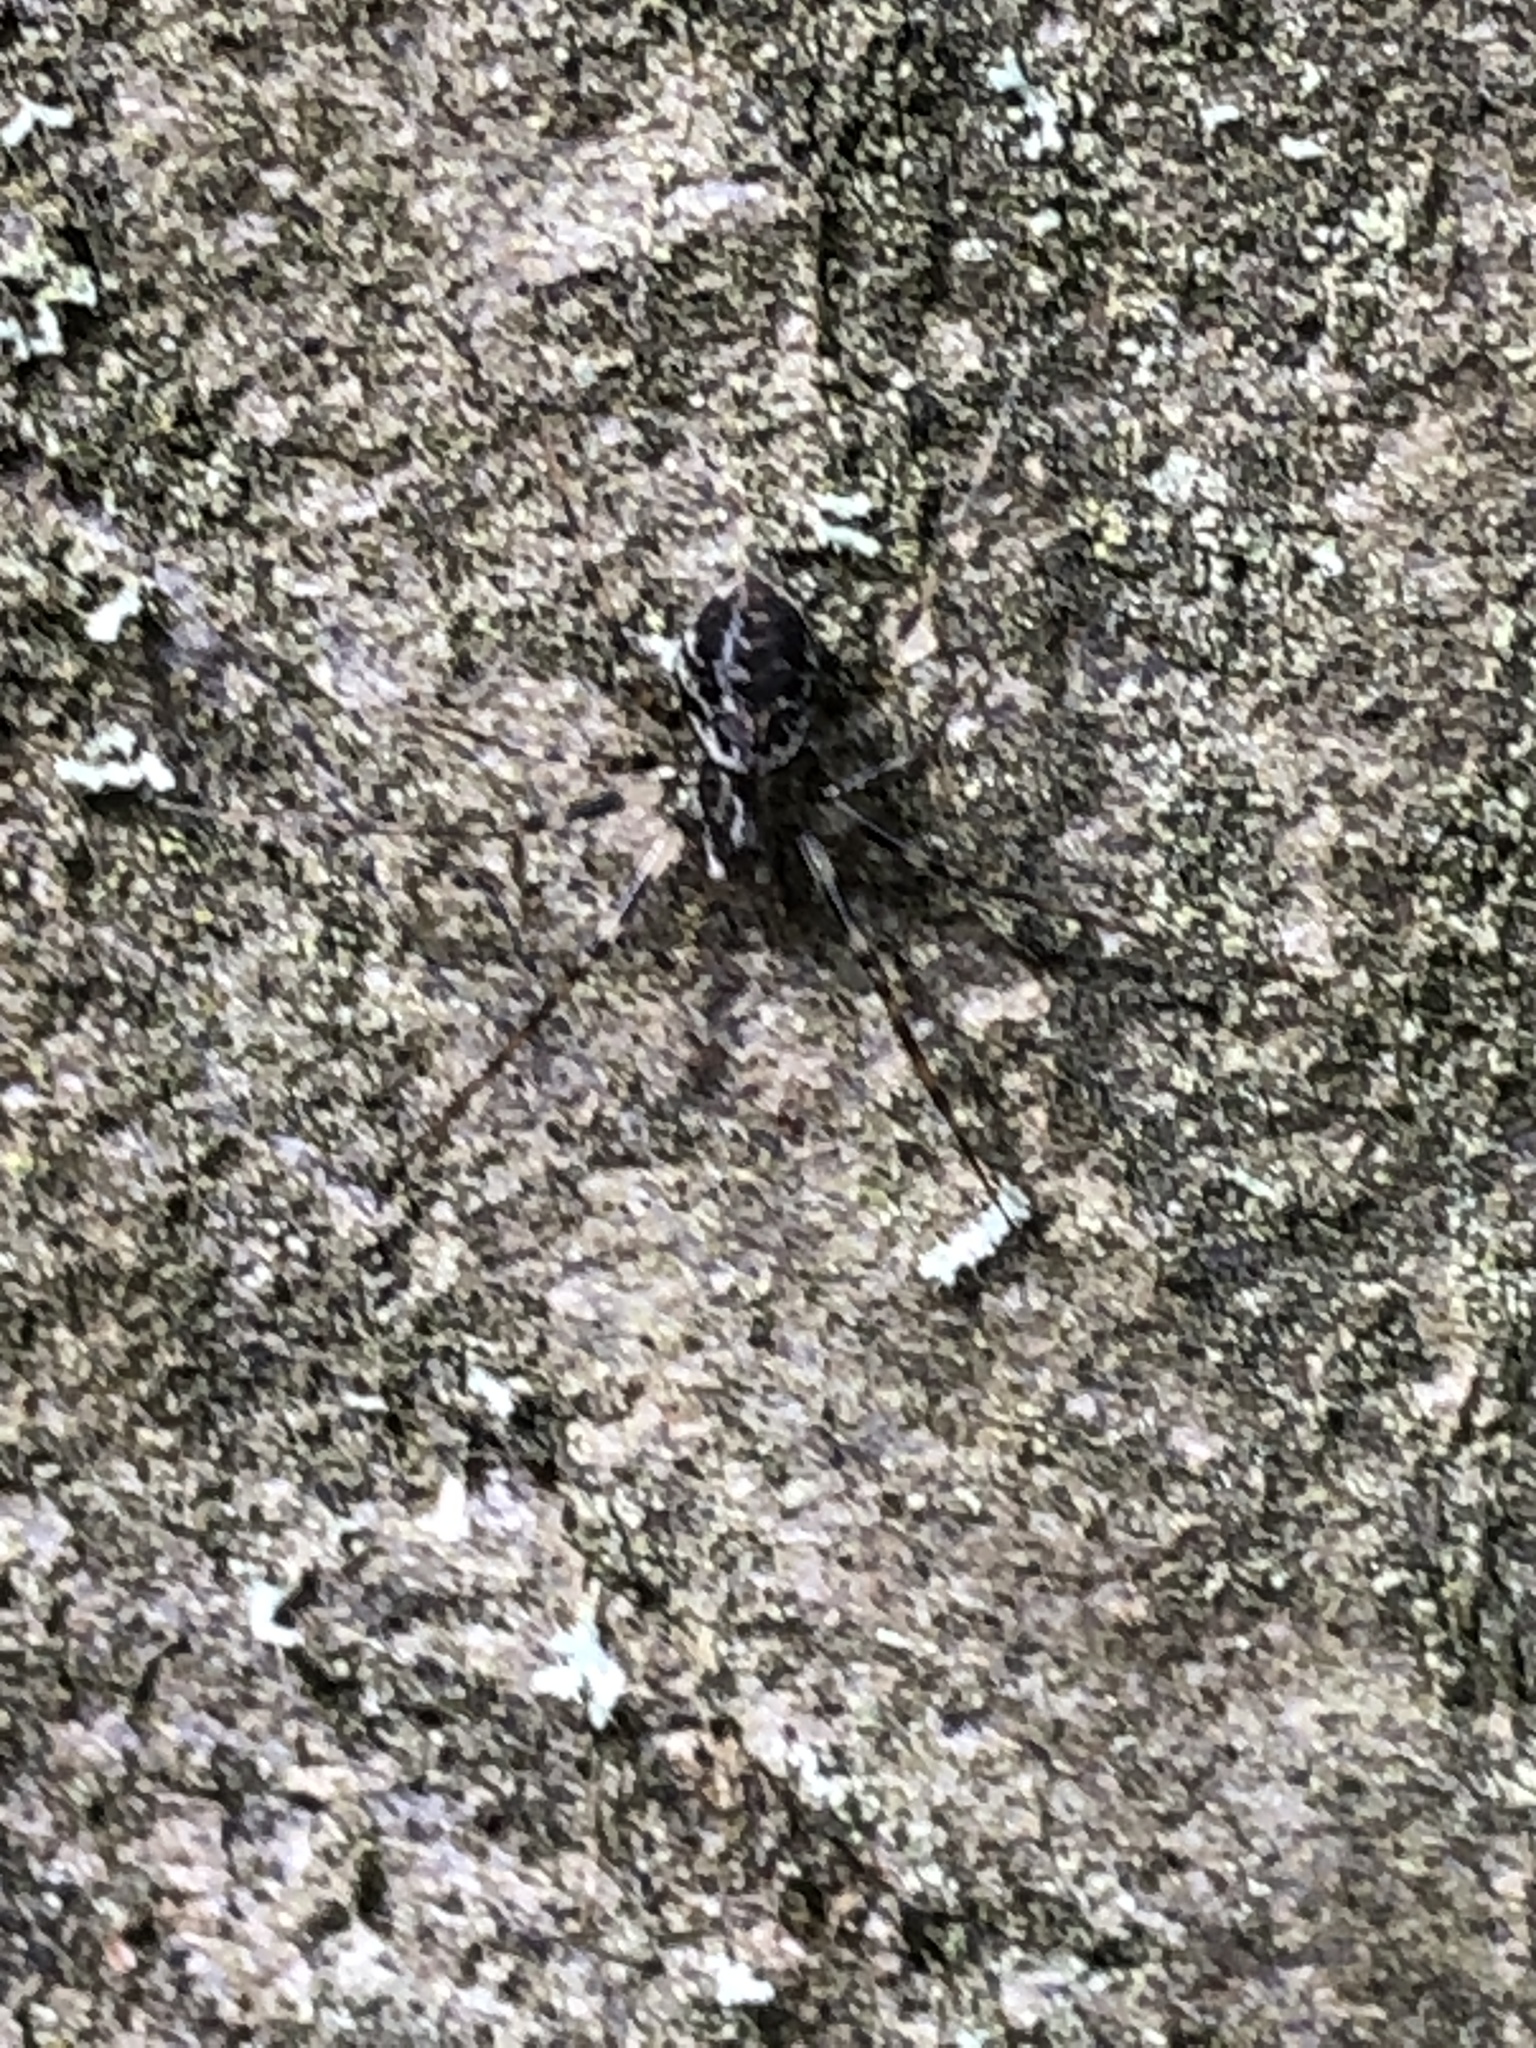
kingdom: Animalia
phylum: Arthropoda
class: Arachnida
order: Araneae
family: Linyphiidae
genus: Drapetisca
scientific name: Drapetisca socialis
